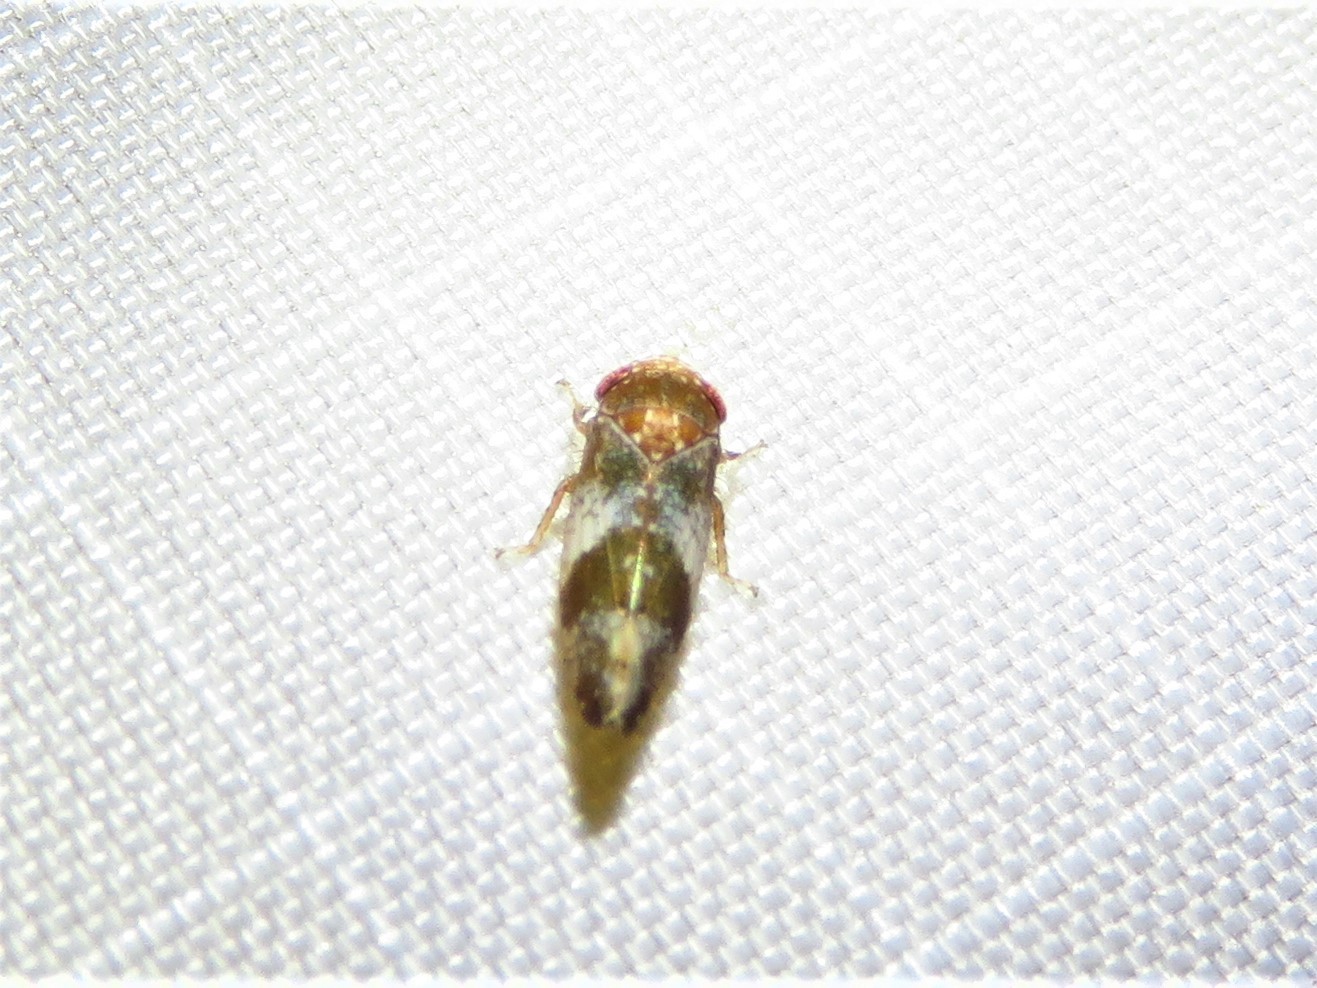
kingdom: Animalia
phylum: Arthropoda
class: Insecta
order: Hemiptera
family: Cicadellidae
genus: Norvellina
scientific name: Norvellina helenae
